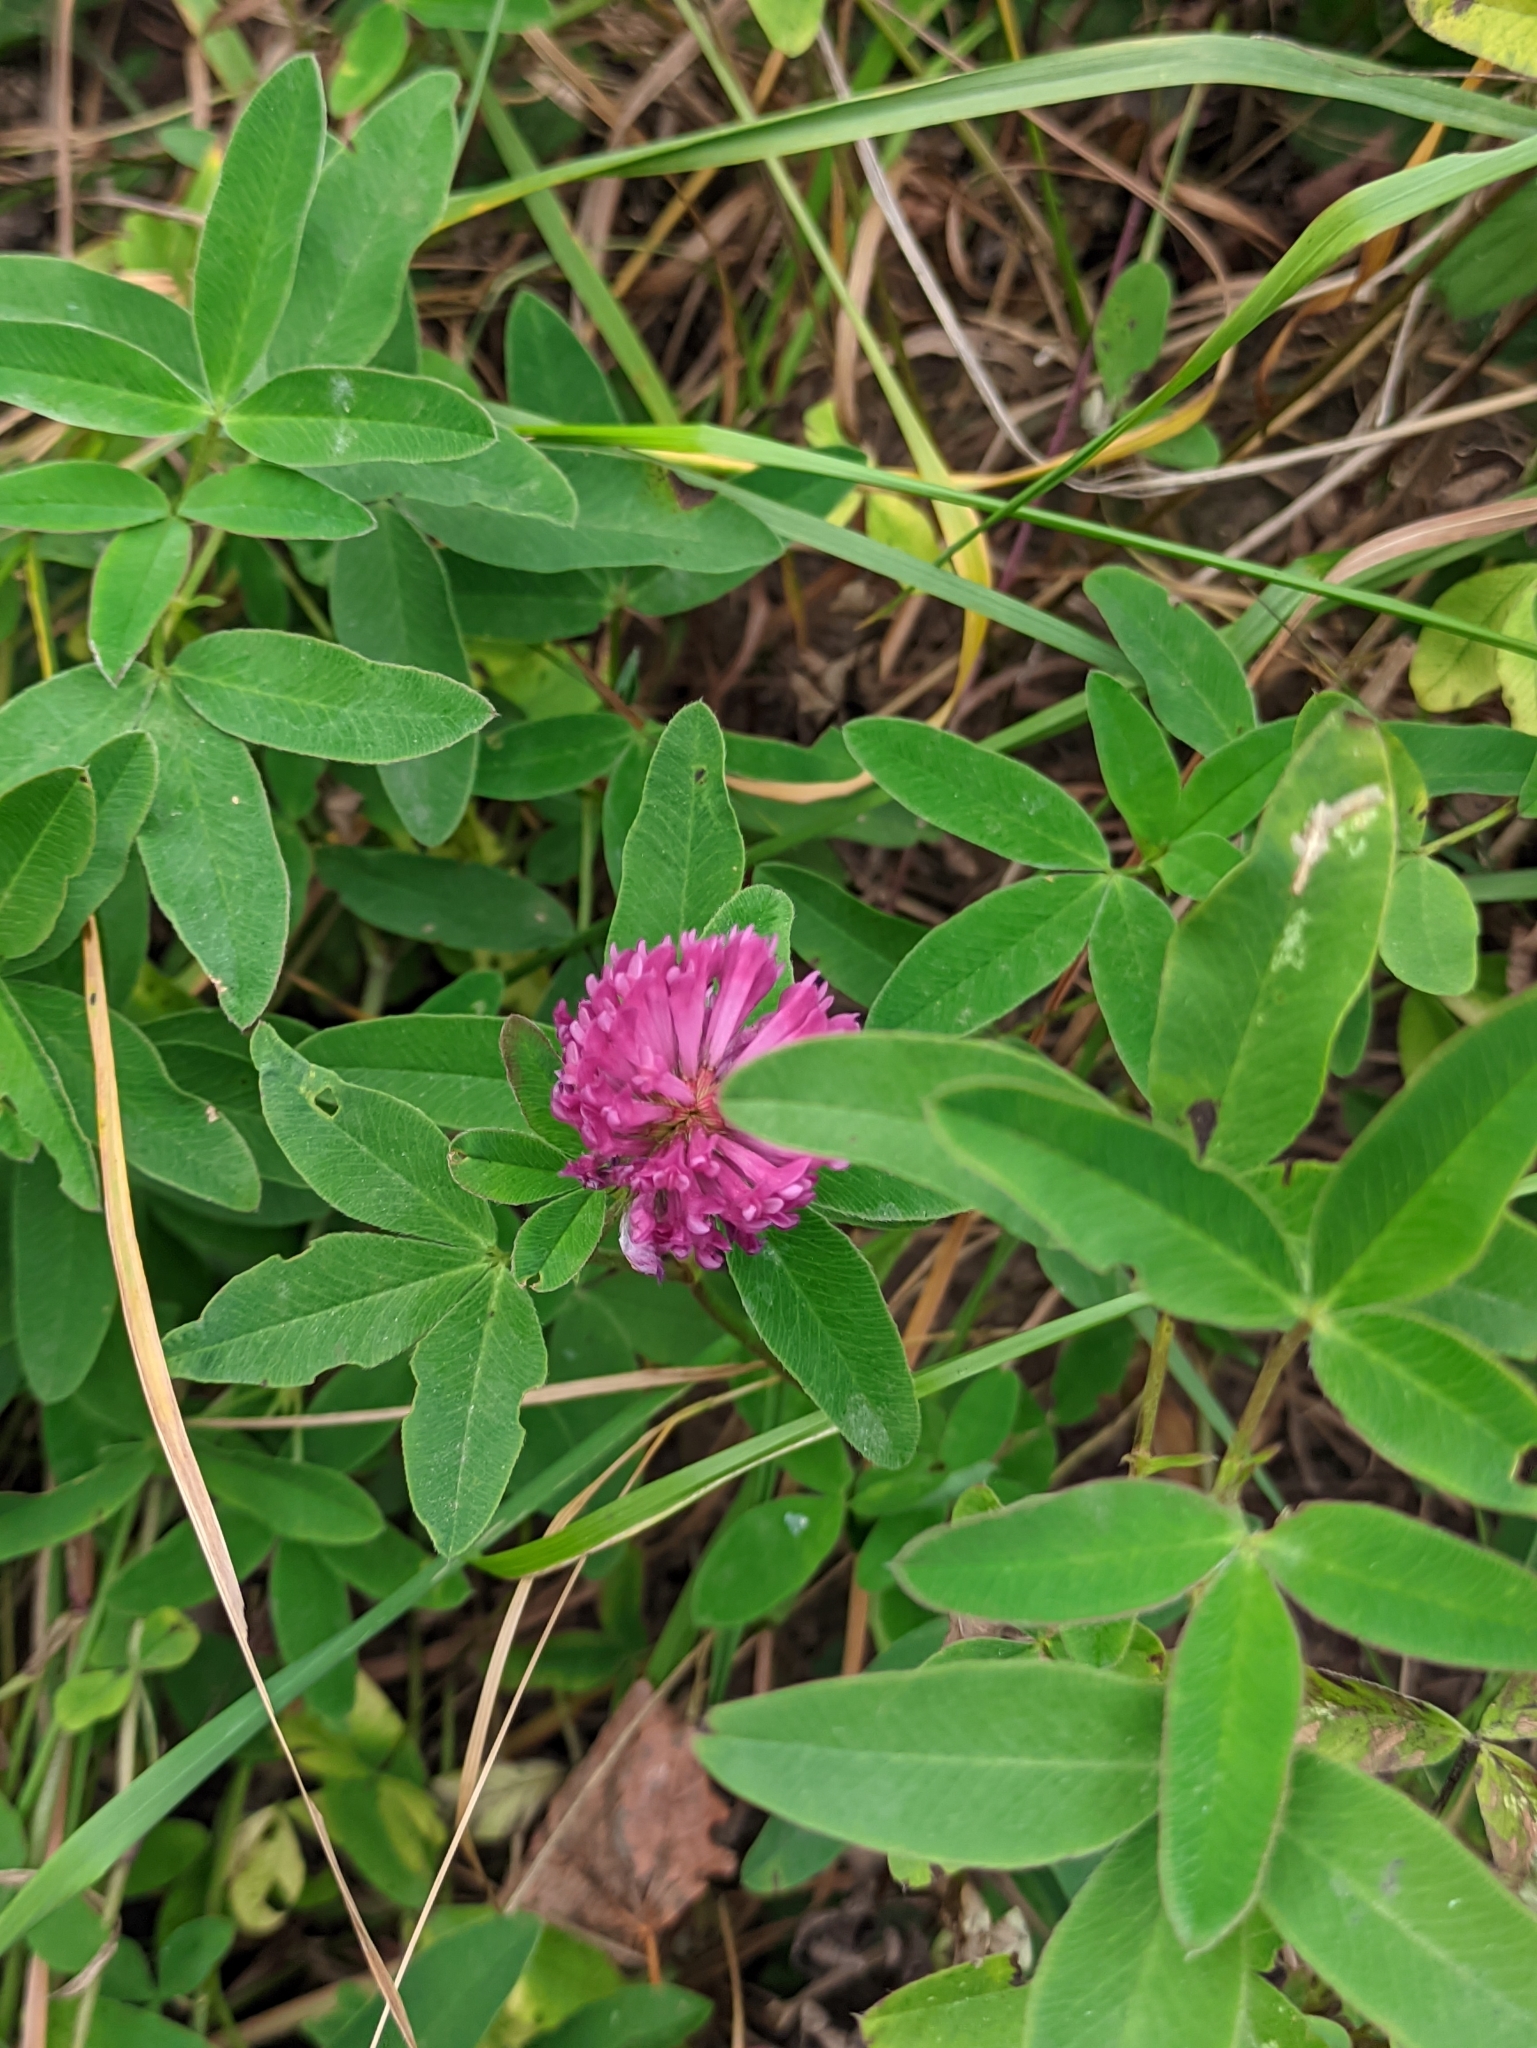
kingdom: Plantae
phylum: Tracheophyta
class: Magnoliopsida
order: Fabales
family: Fabaceae
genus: Trifolium
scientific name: Trifolium medium
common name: Zigzag clover
